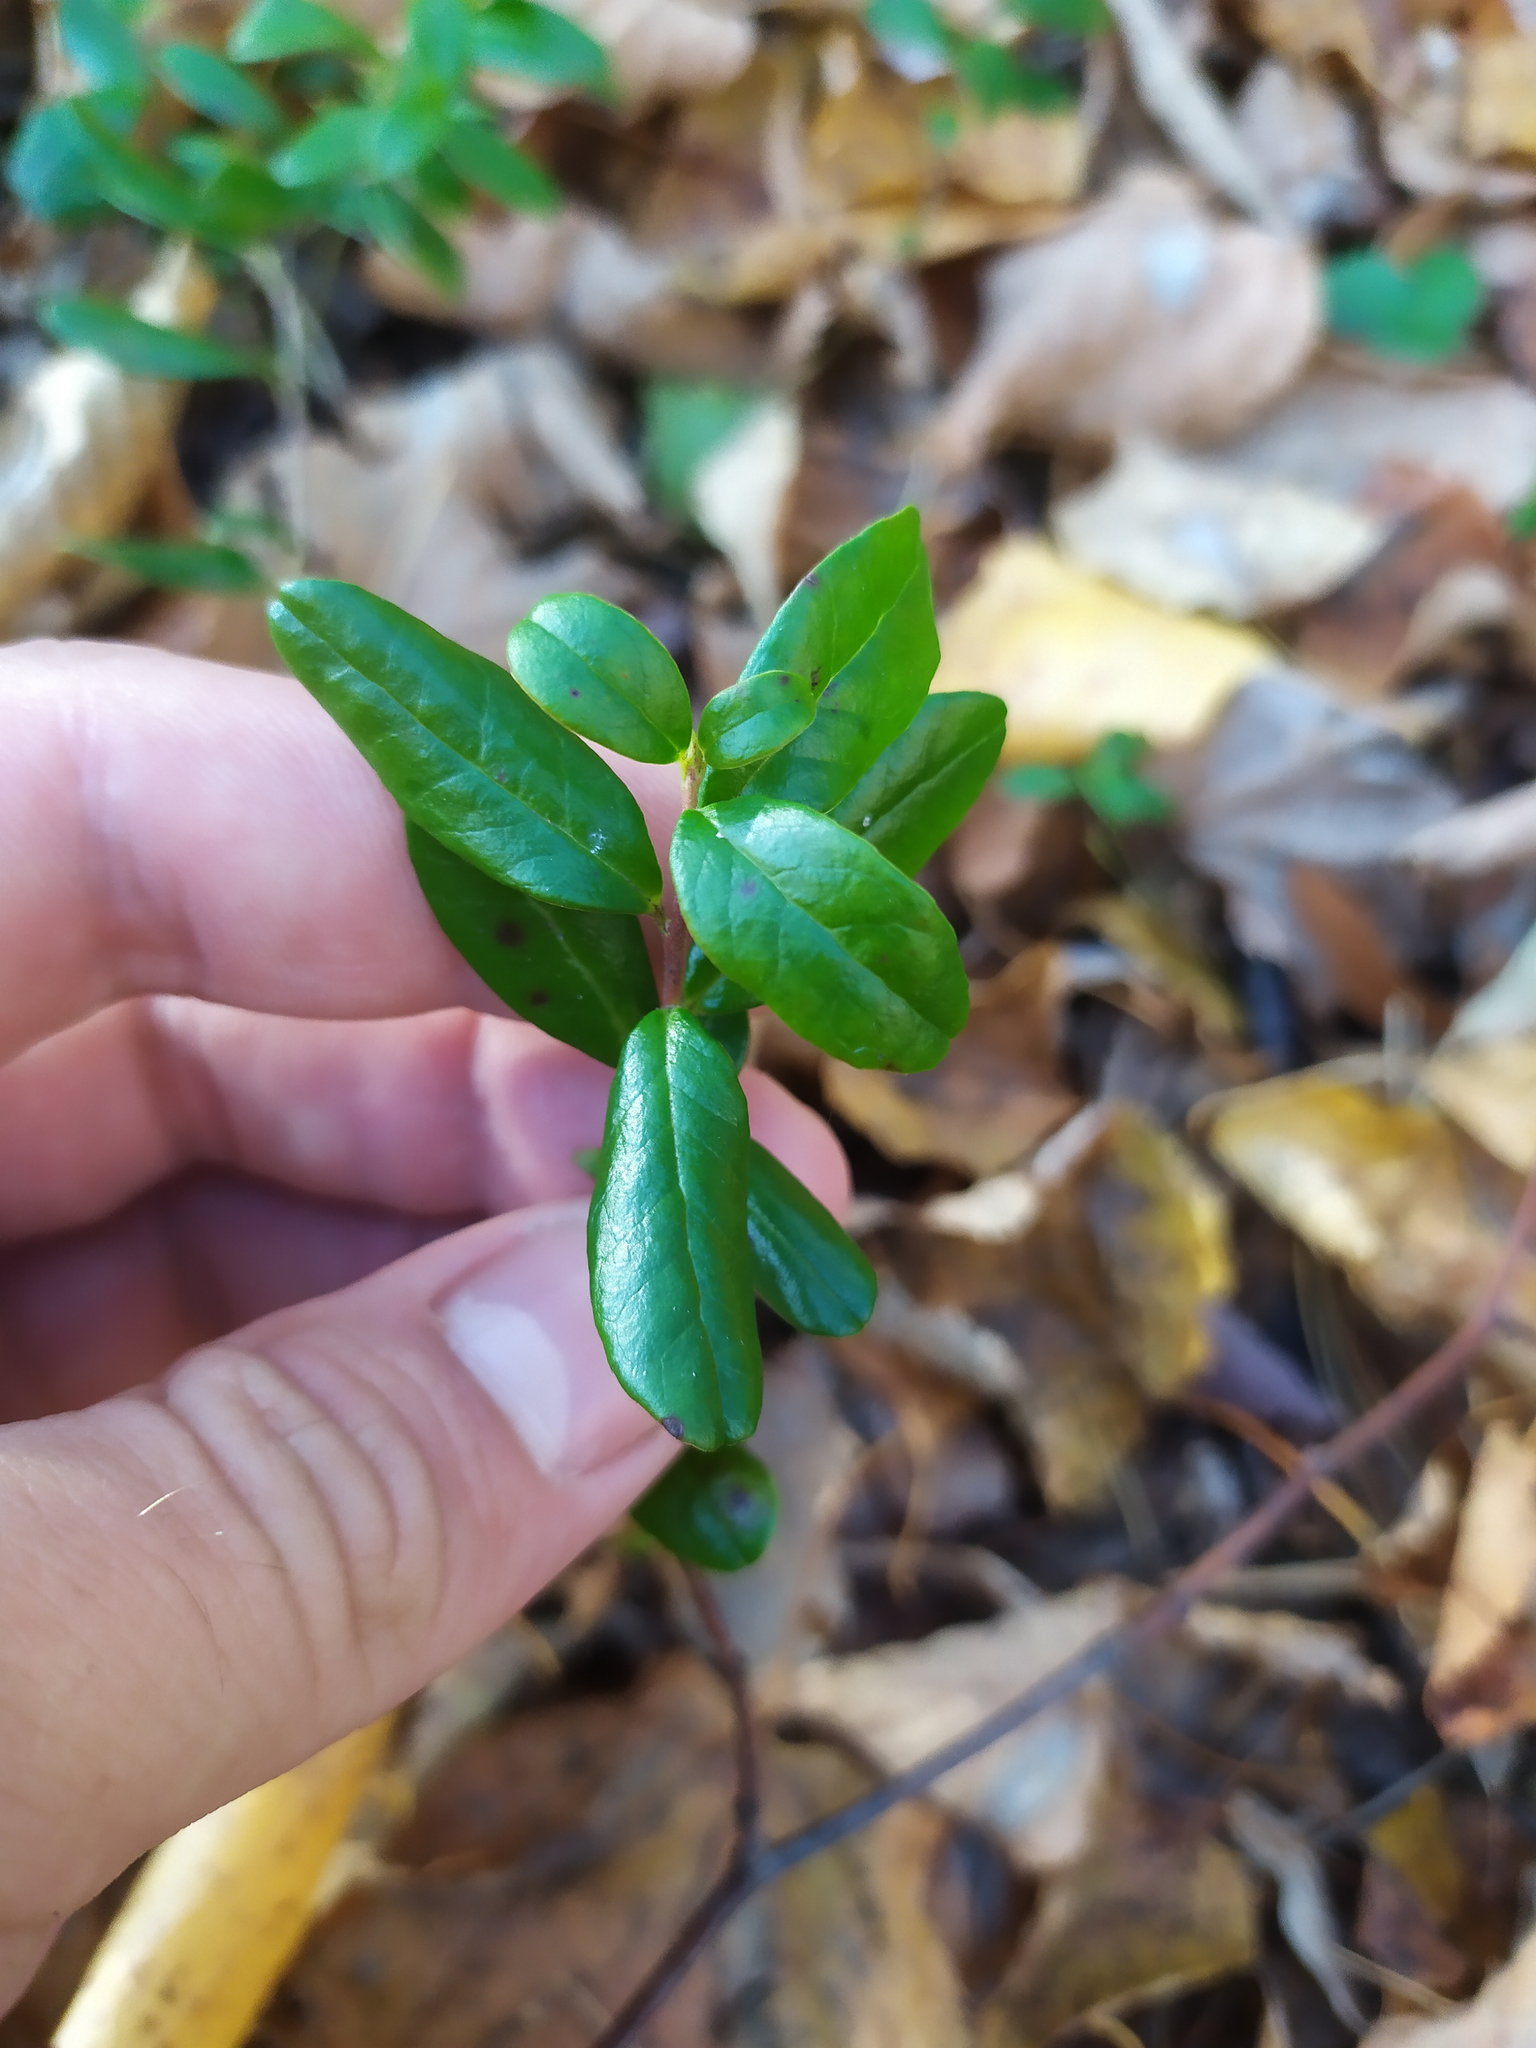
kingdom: Plantae
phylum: Tracheophyta
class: Magnoliopsida
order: Ericales
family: Ericaceae
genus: Vaccinium
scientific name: Vaccinium vitis-idaea
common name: Cowberry
